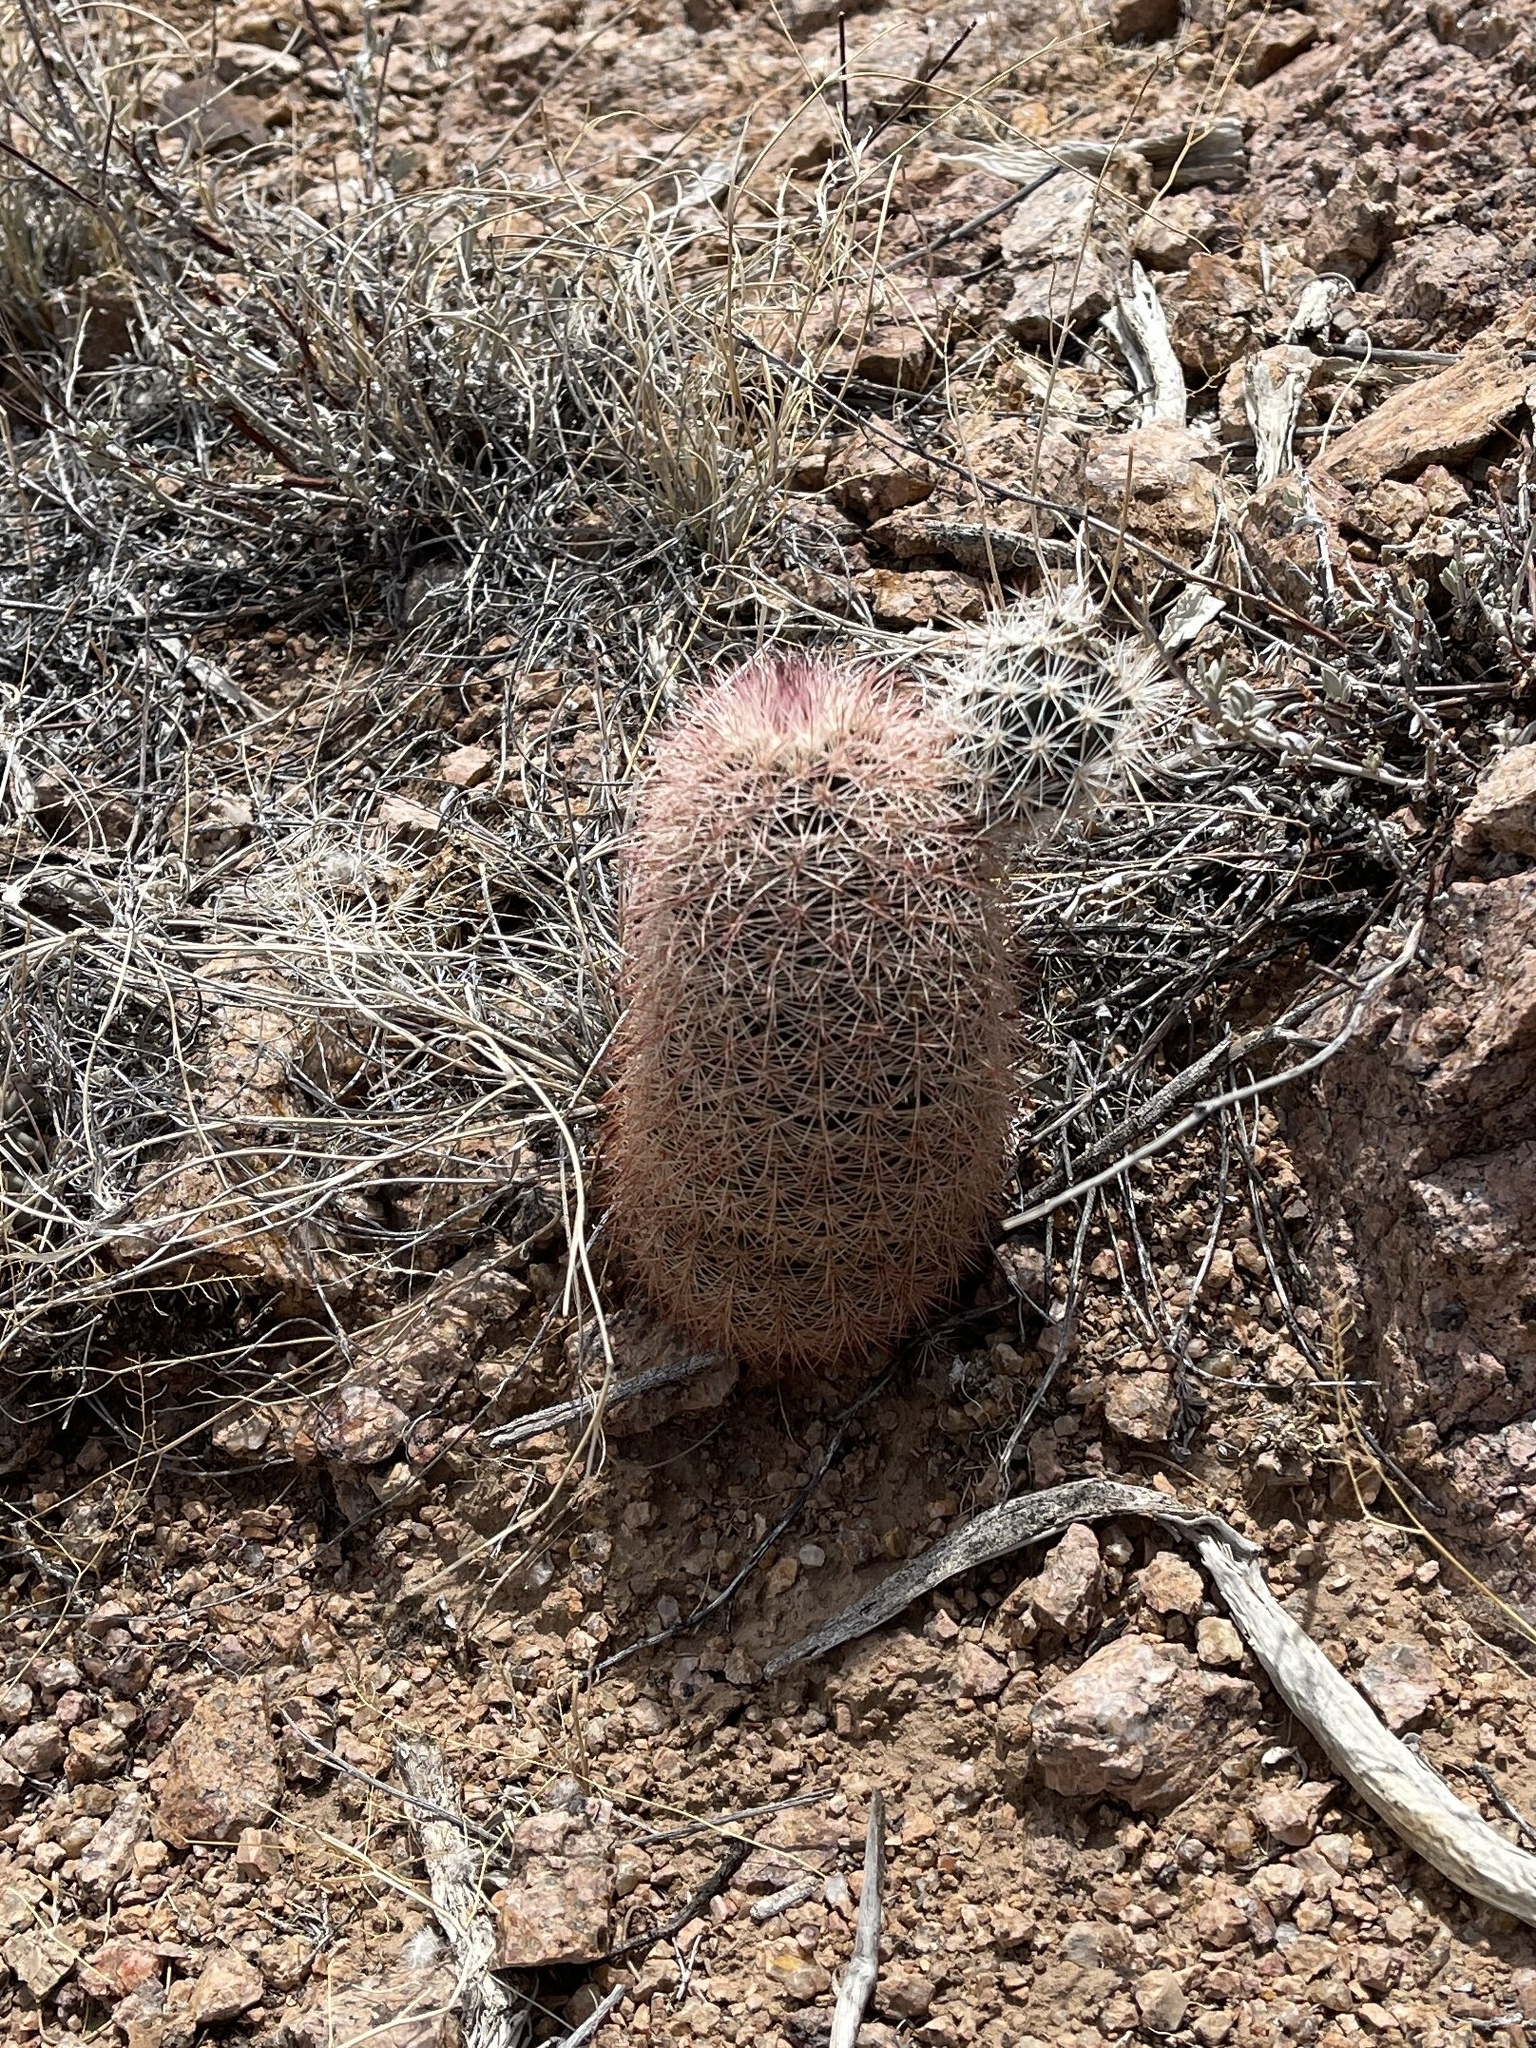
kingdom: Plantae
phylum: Tracheophyta
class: Magnoliopsida
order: Caryophyllales
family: Cactaceae
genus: Echinocereus
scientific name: Echinocereus dasyacanthus
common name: Spiny hedgehog cactus
